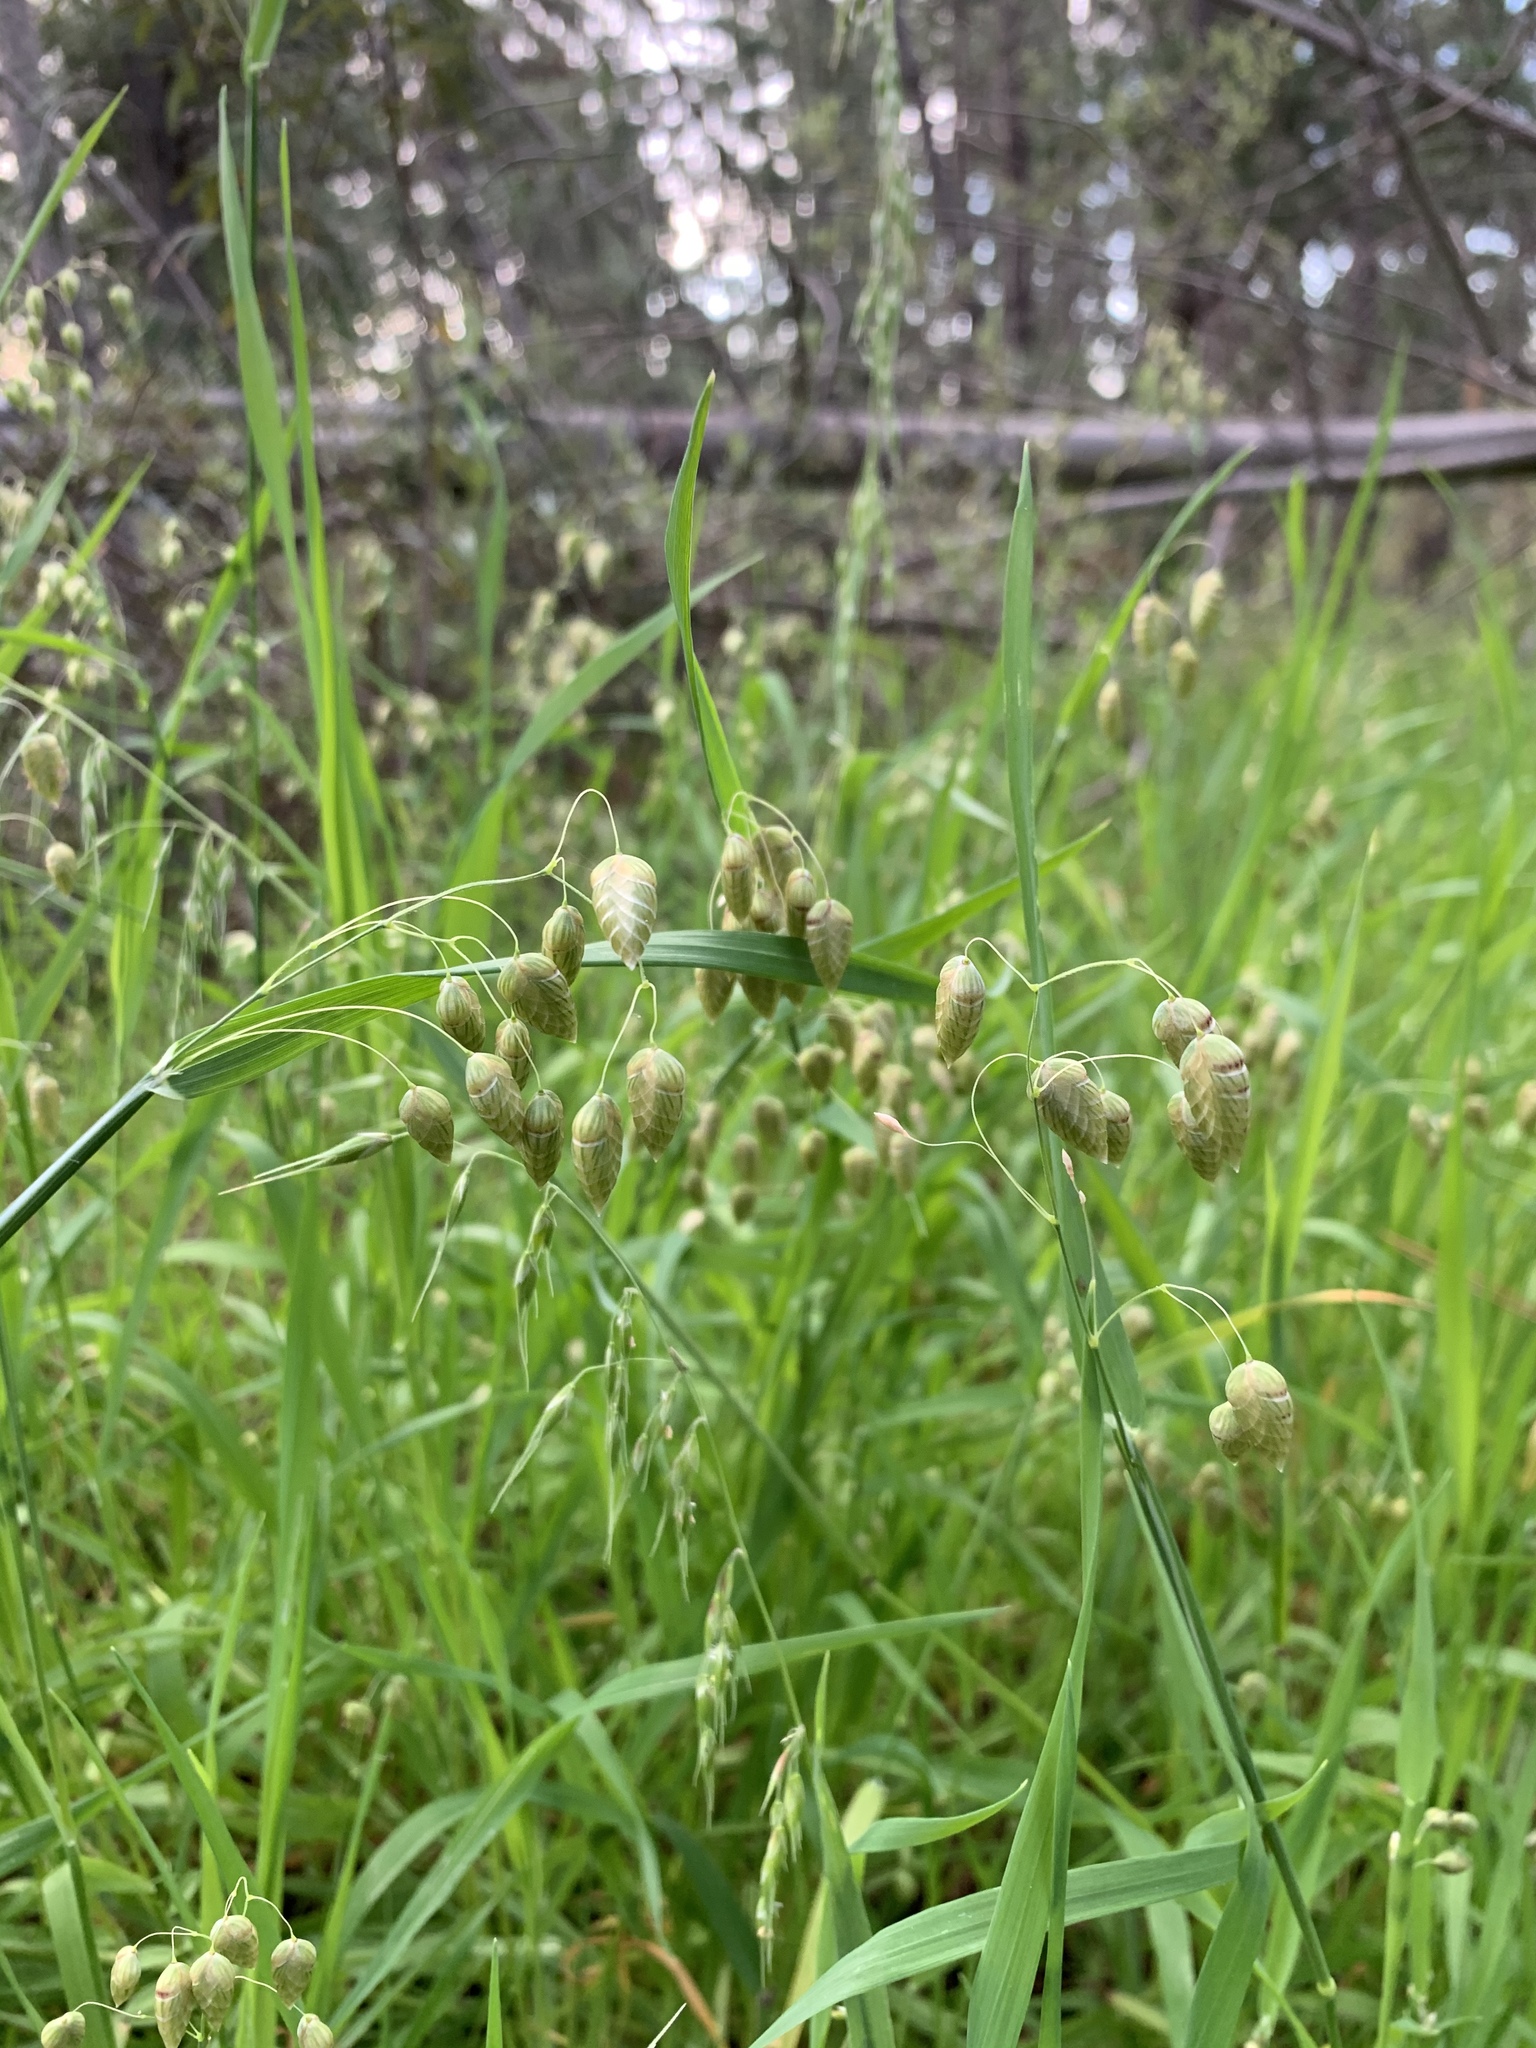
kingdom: Plantae
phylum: Tracheophyta
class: Liliopsida
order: Poales
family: Poaceae
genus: Briza
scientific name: Briza maxima
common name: Big quakinggrass
